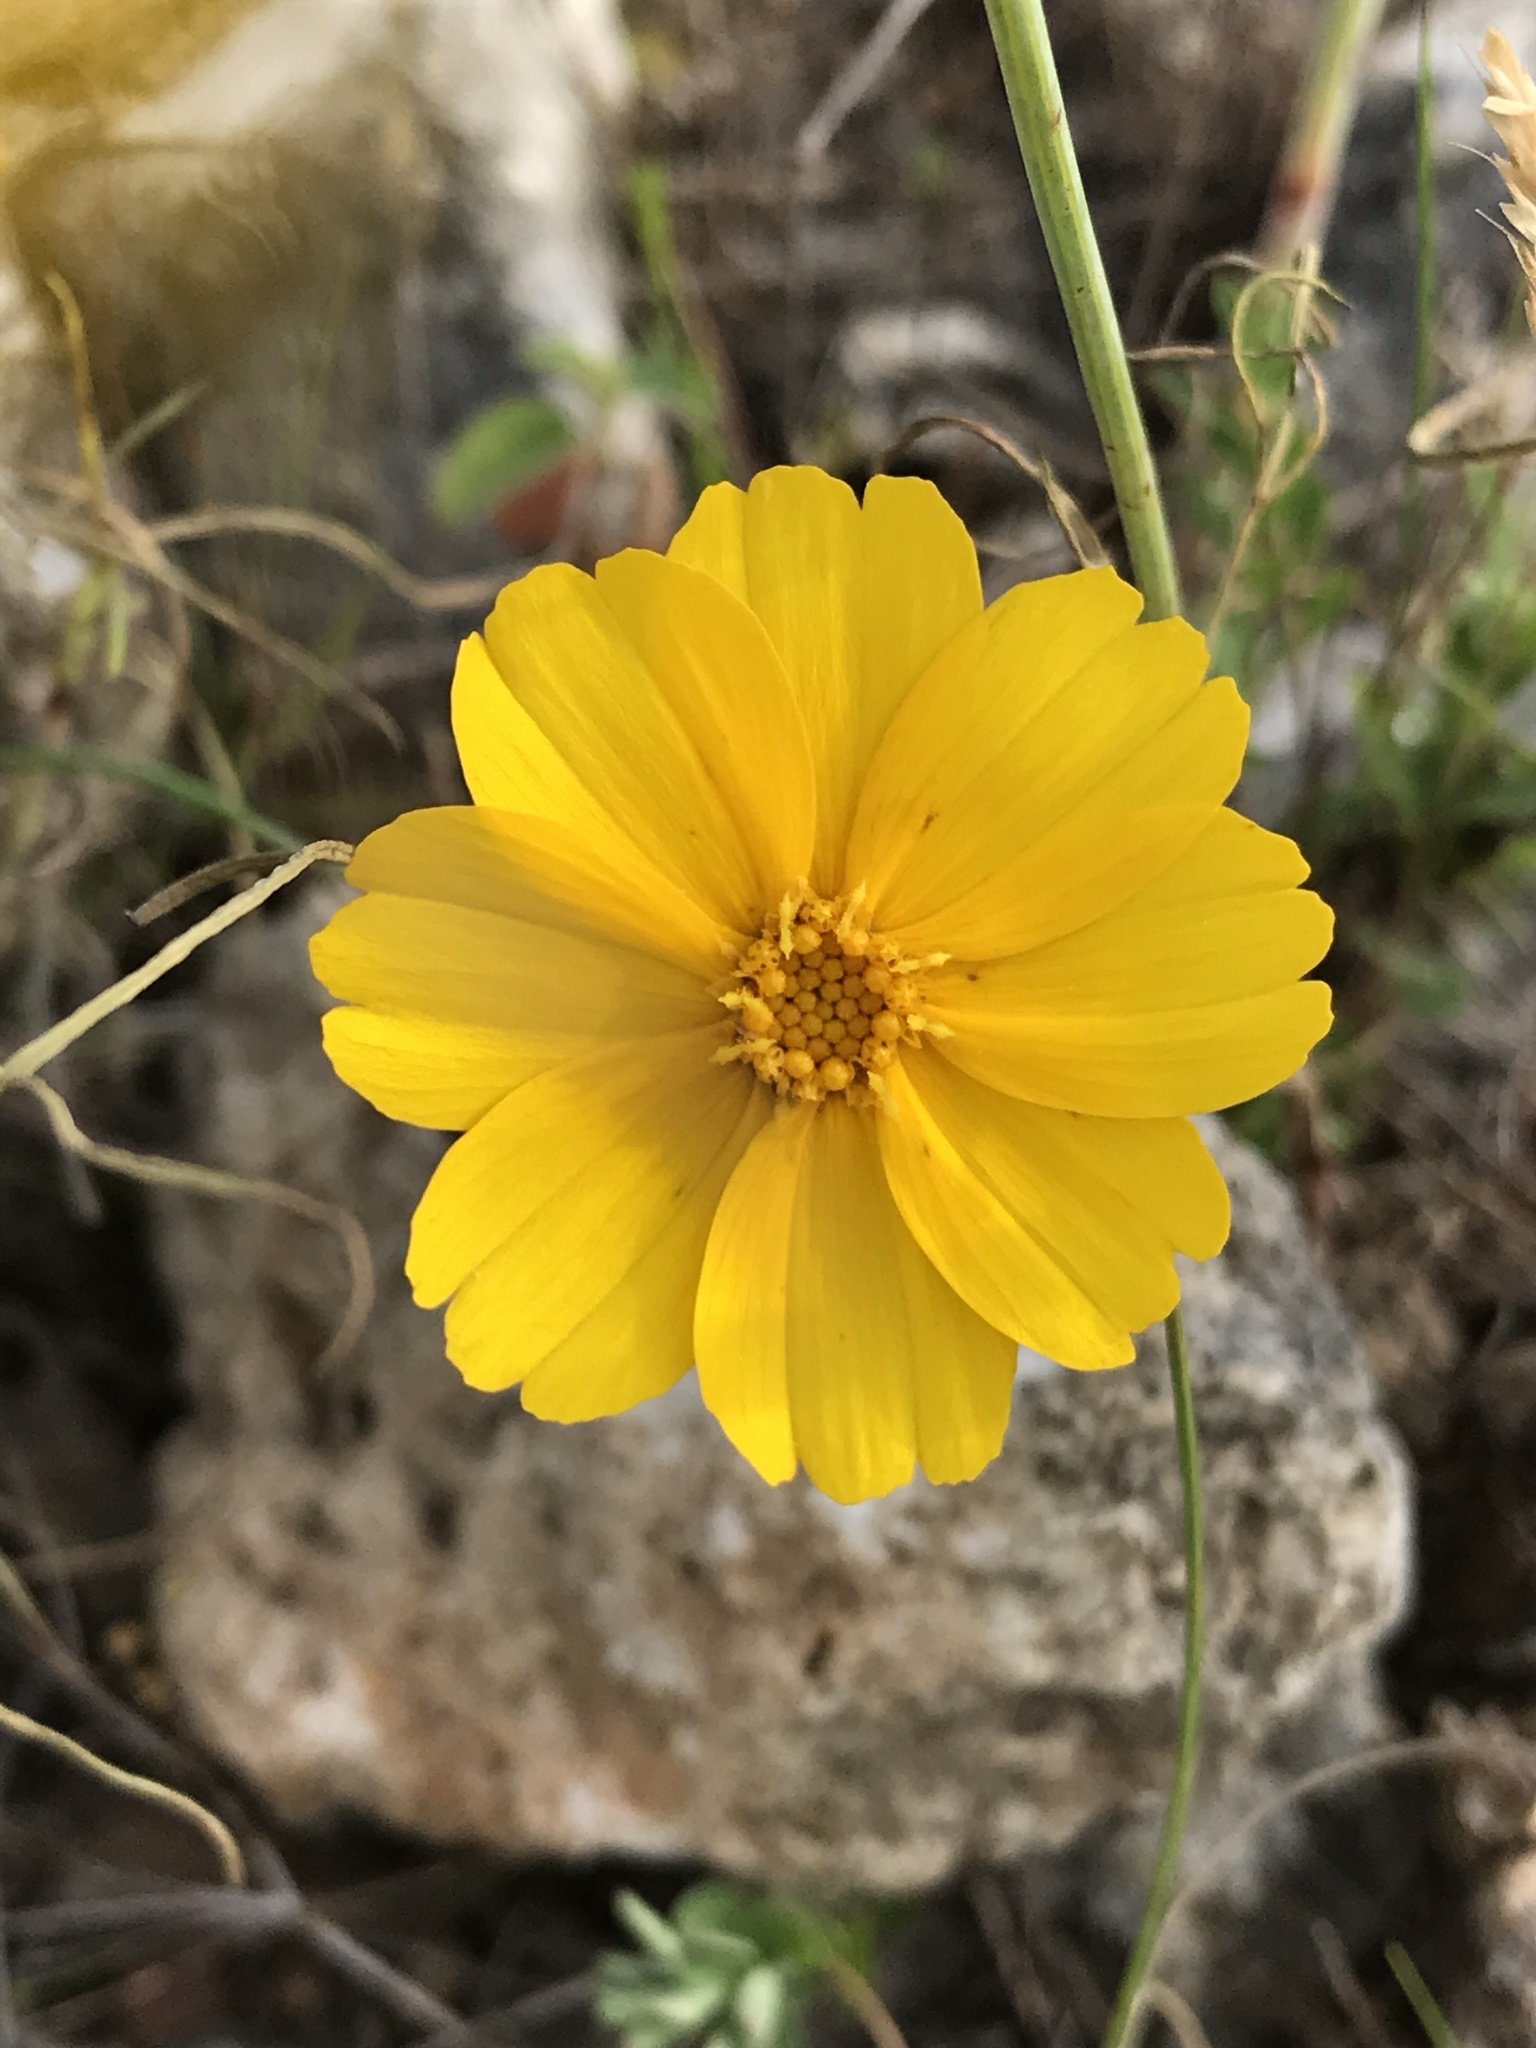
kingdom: Plantae
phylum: Tracheophyta
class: Magnoliopsida
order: Asterales
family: Asteraceae
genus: Thelesperma
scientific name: Thelesperma simplicifolium
